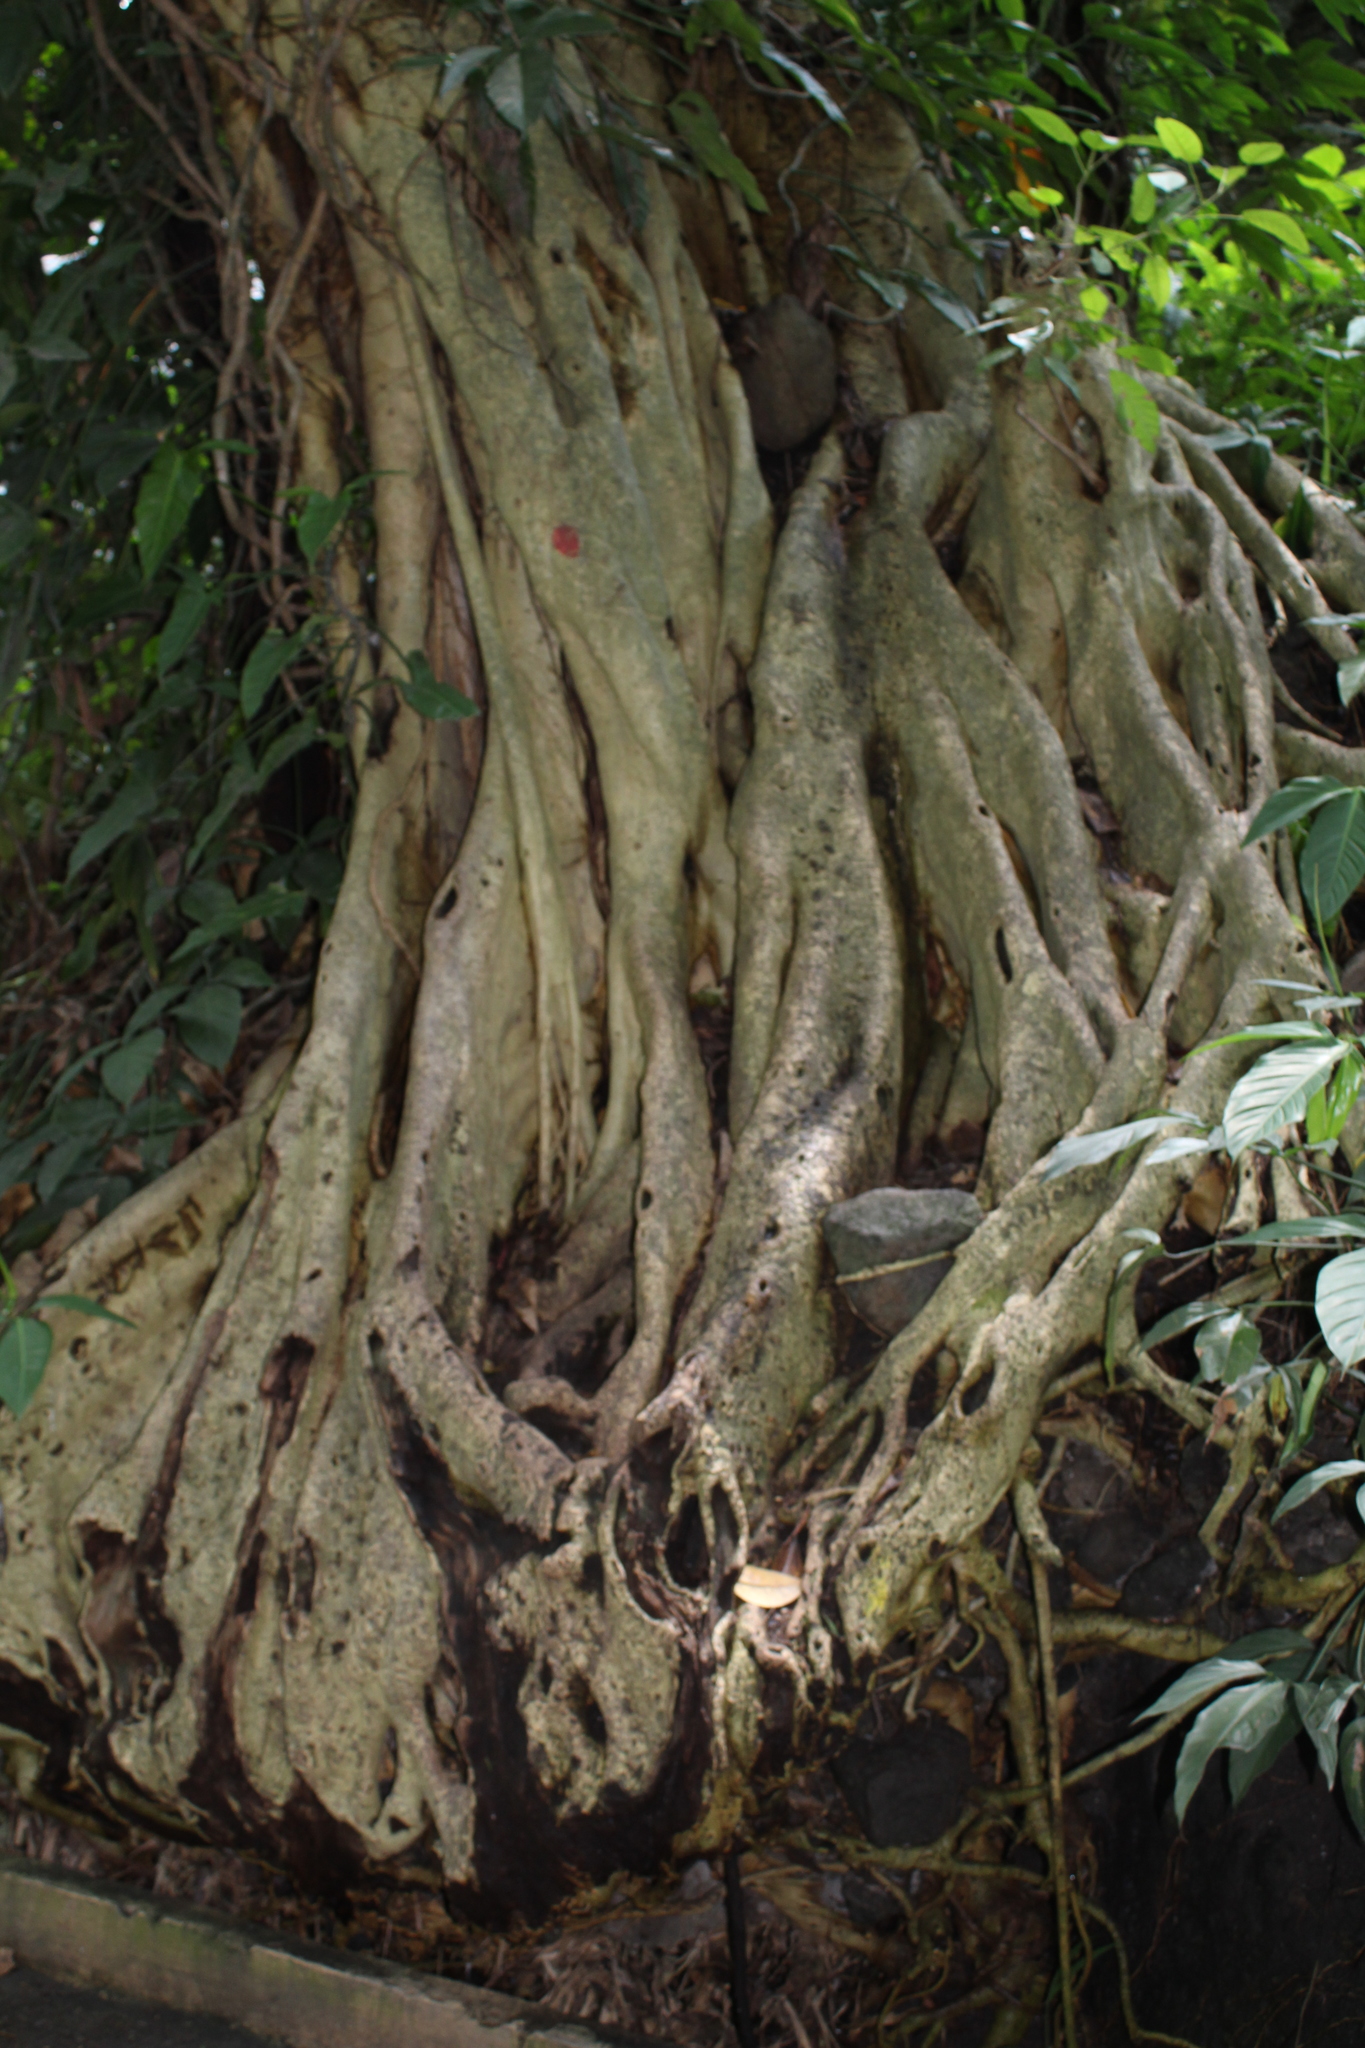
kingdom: Plantae
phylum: Tracheophyta
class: Magnoliopsida
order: Rosales
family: Moraceae
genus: Ficus
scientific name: Ficus petiolaris
